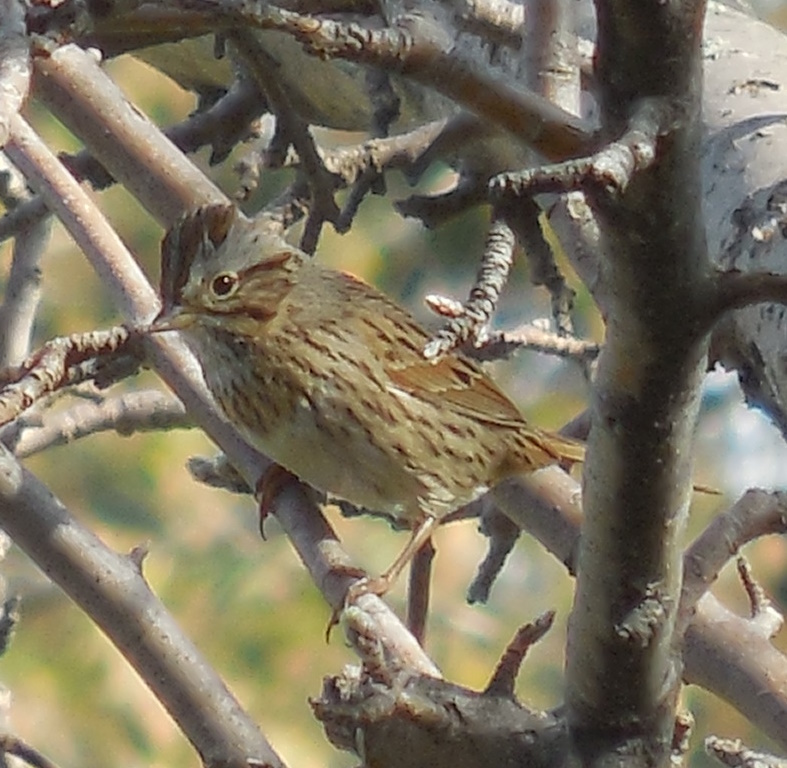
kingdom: Animalia
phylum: Chordata
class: Aves
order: Passeriformes
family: Passerellidae
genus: Melospiza
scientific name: Melospiza lincolnii
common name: Lincoln's sparrow
